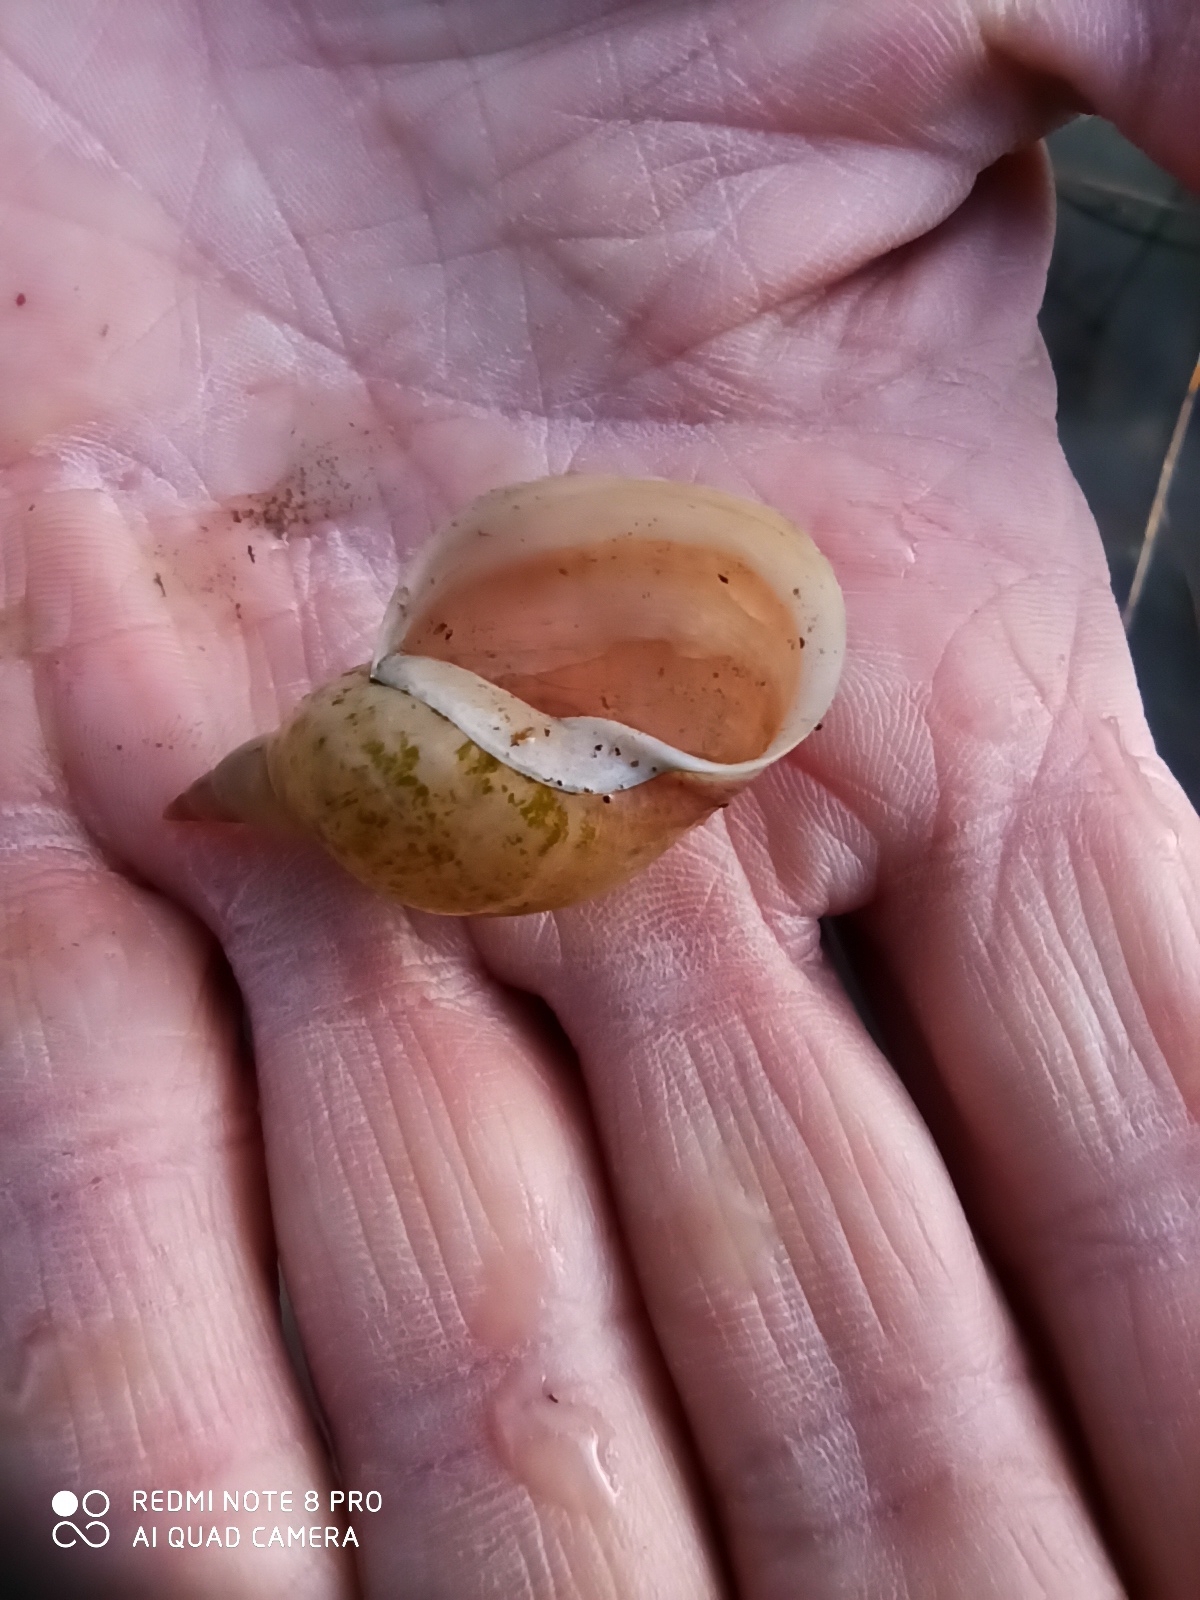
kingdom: Animalia
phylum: Mollusca
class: Gastropoda
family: Lymnaeidae
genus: Lymnaea
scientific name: Lymnaea stagnalis
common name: Great pond snail
